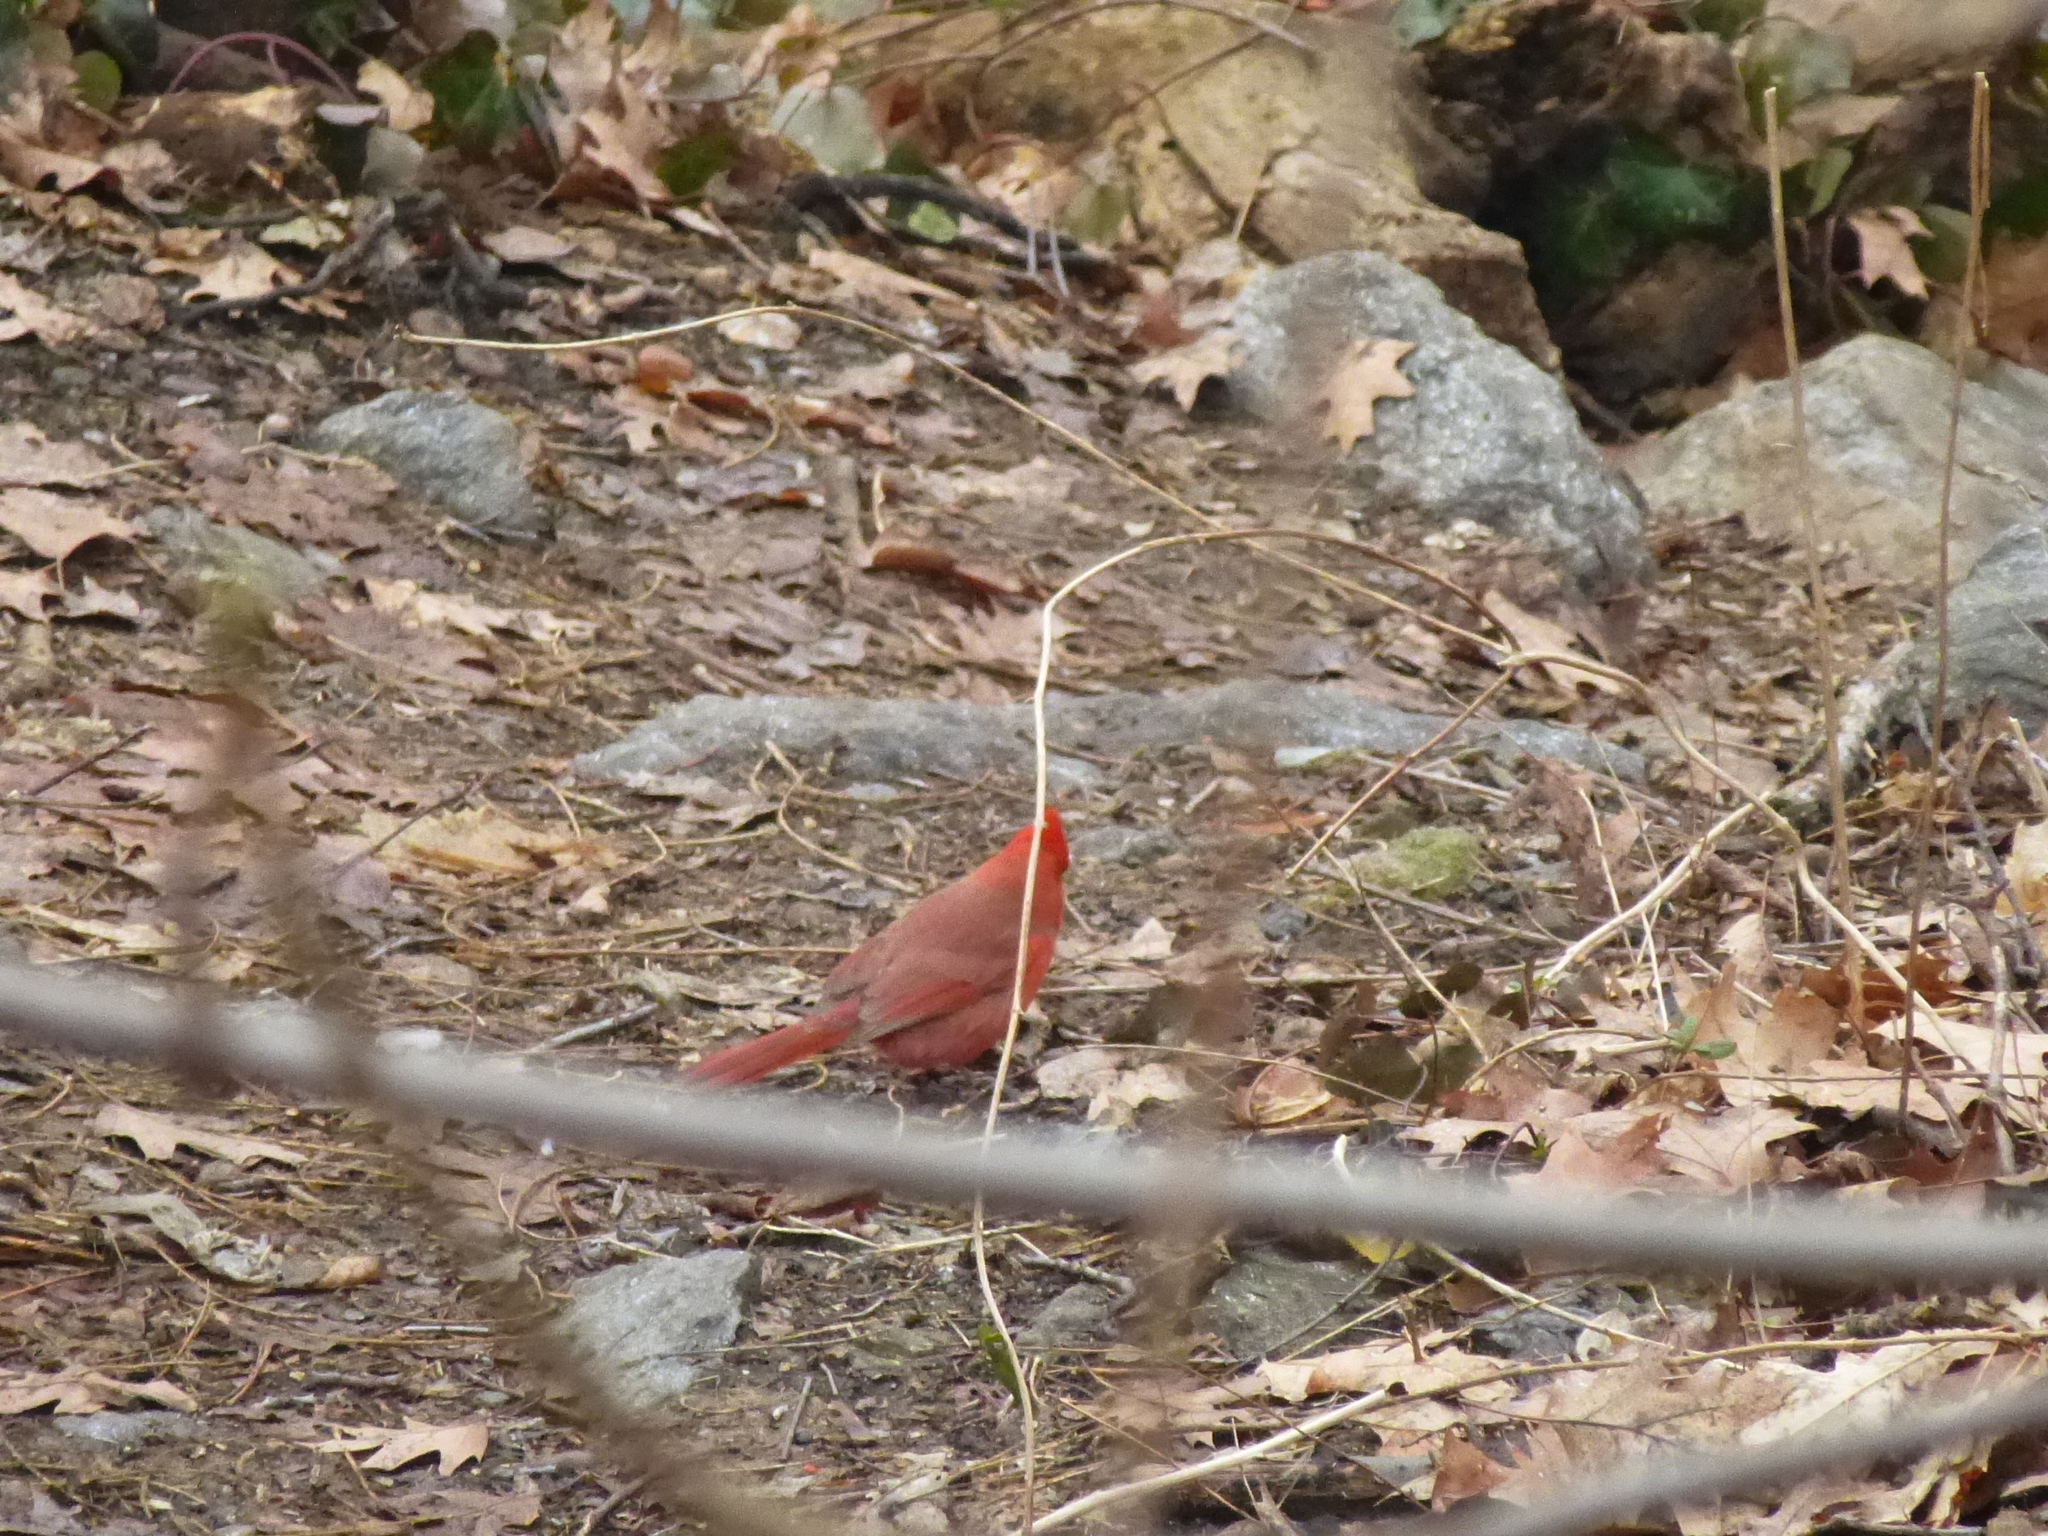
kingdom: Animalia
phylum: Chordata
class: Aves
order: Passeriformes
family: Cardinalidae
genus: Cardinalis
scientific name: Cardinalis cardinalis
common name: Northern cardinal
